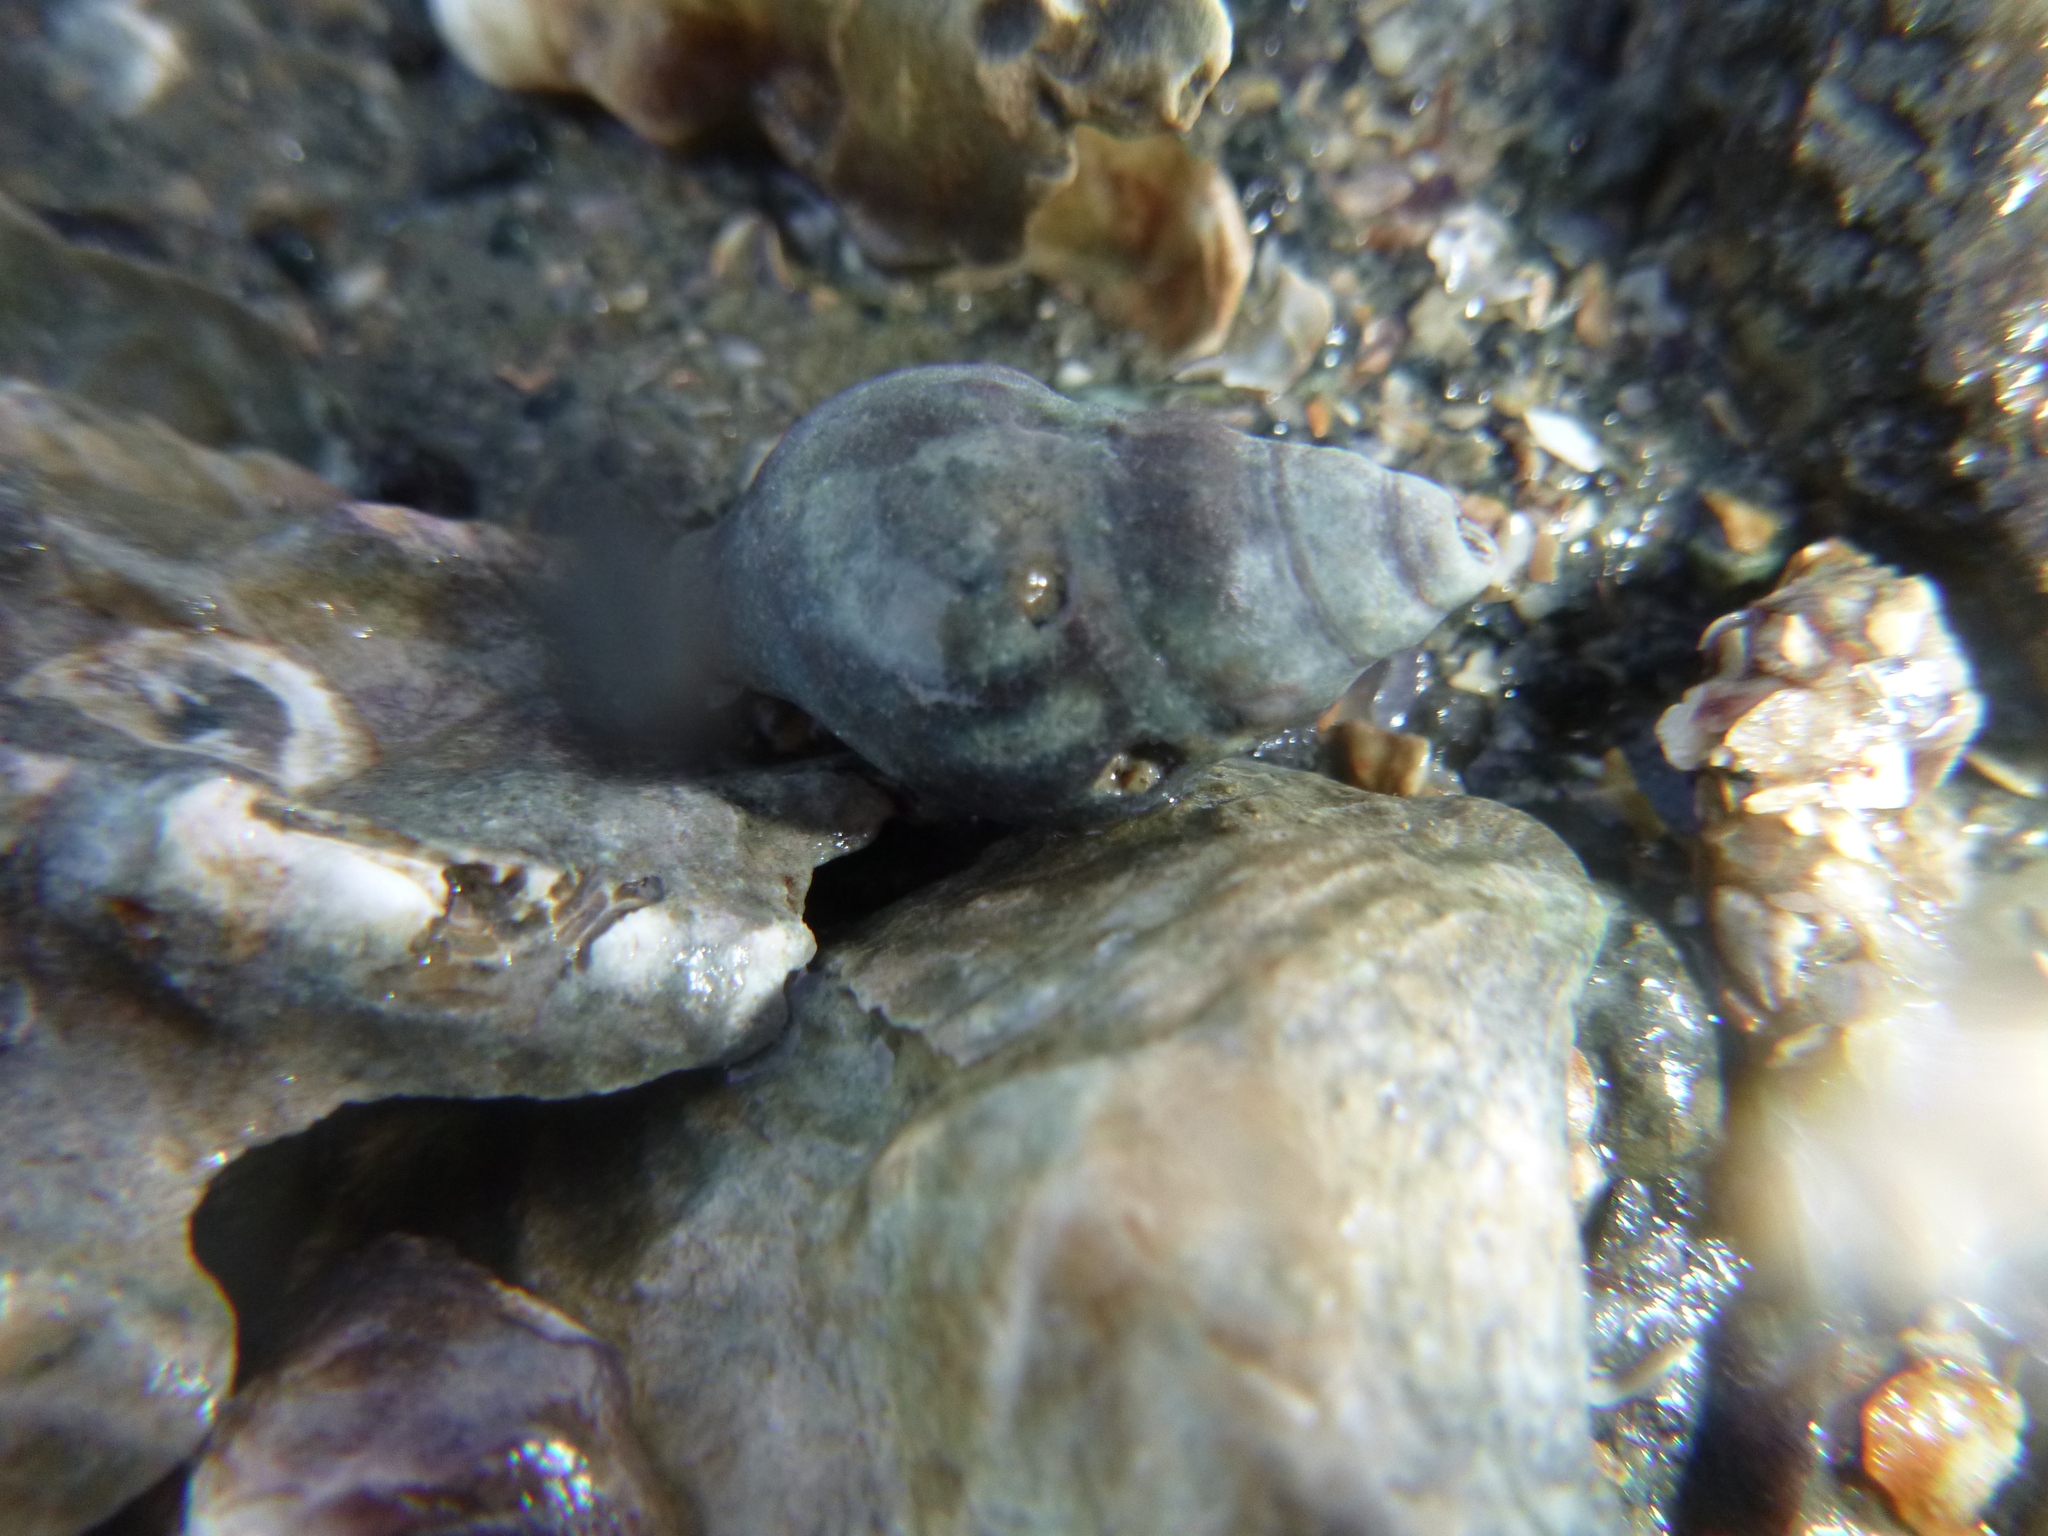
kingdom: Animalia
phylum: Mollusca
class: Gastropoda
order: Neogastropoda
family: Cominellidae
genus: Cominella
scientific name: Cominella maculosa
